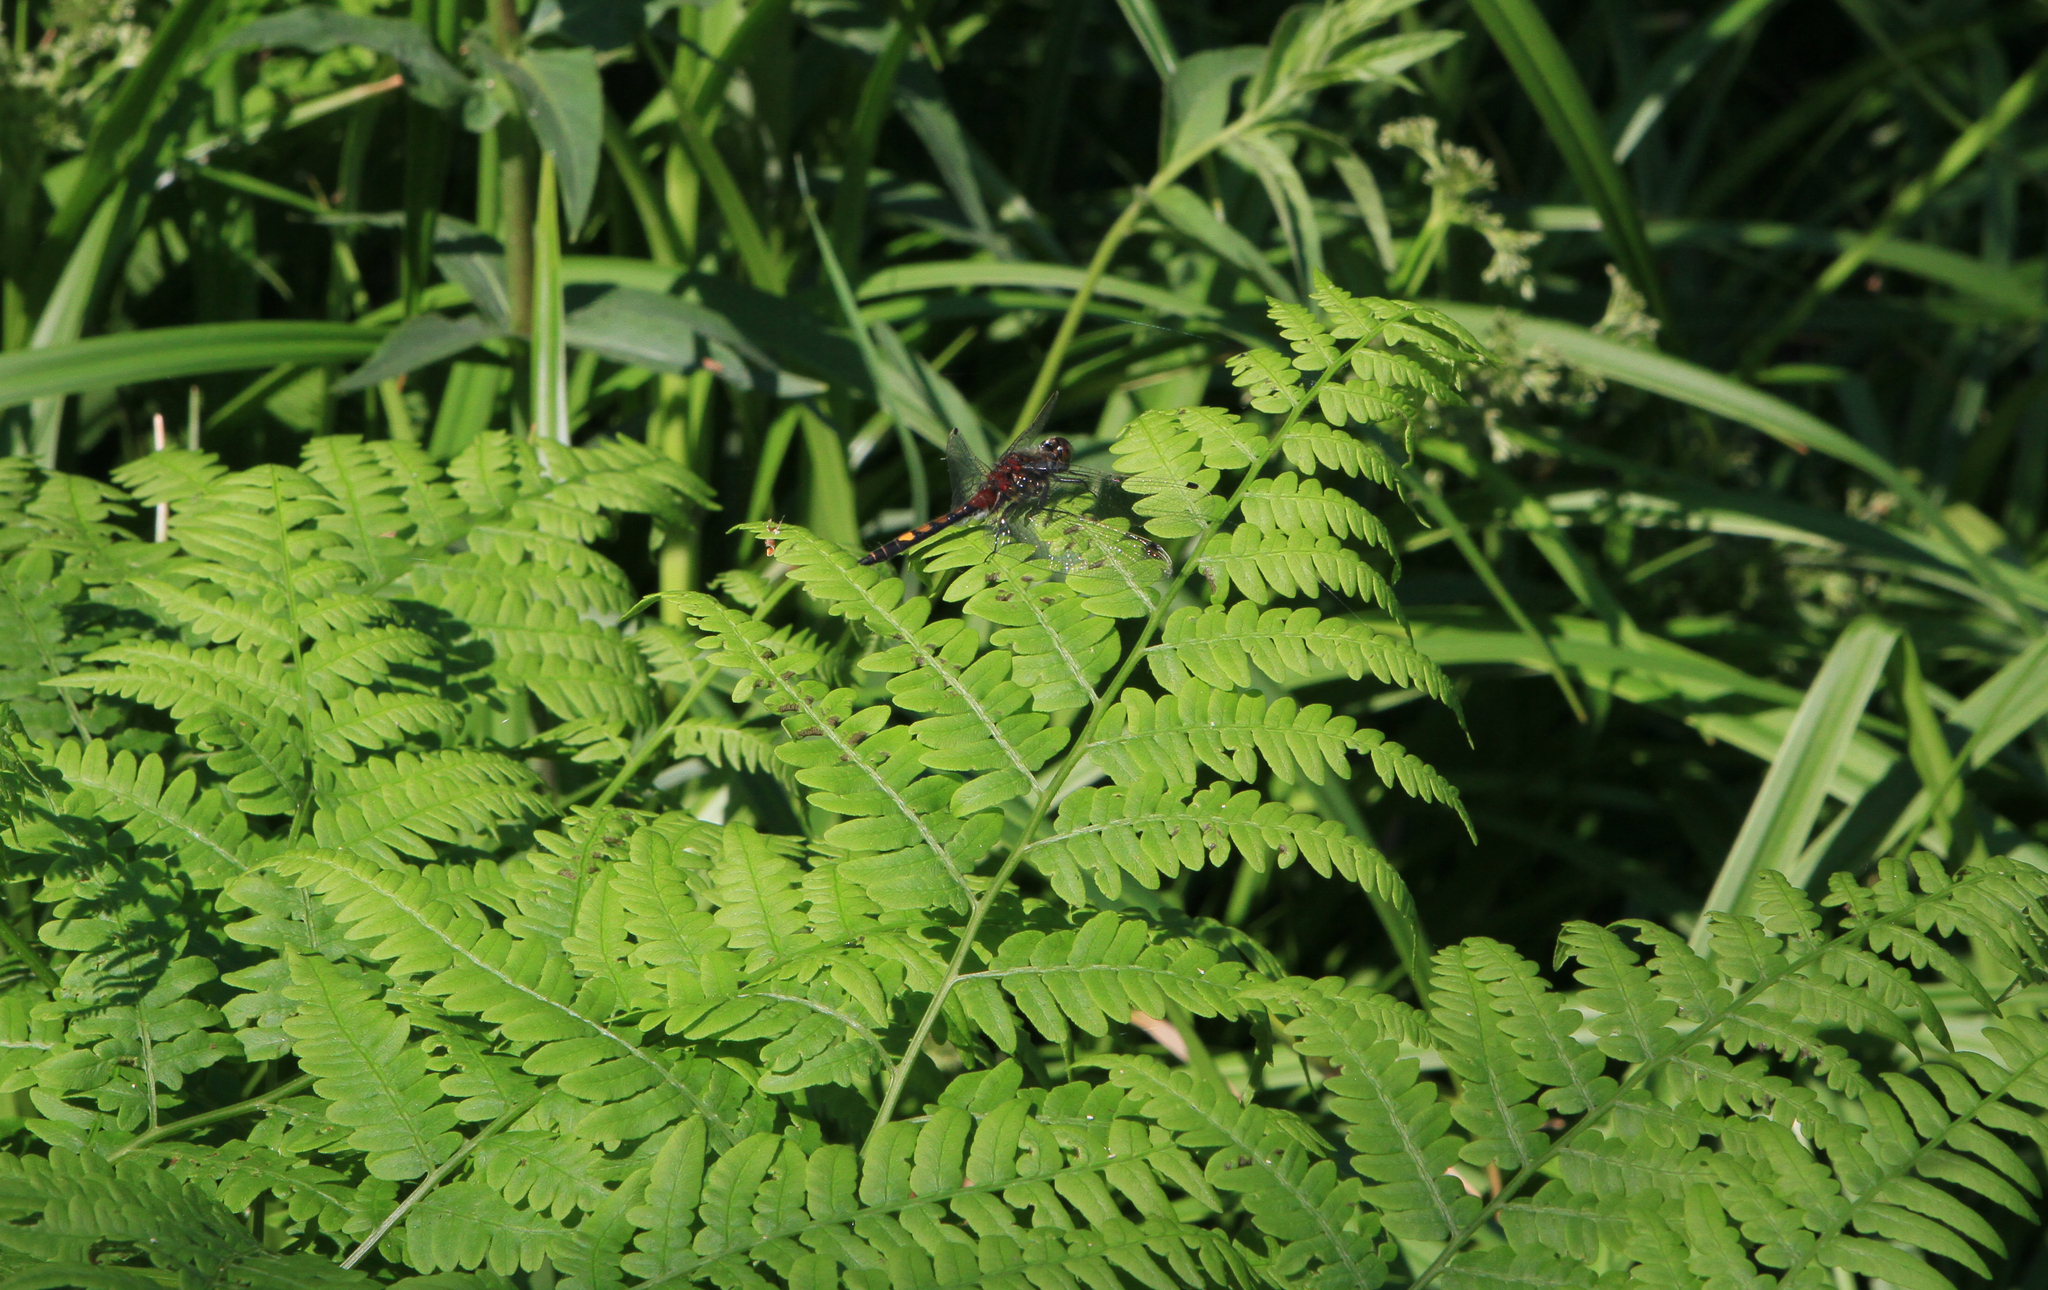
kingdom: Animalia
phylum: Arthropoda
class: Insecta
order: Odonata
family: Libellulidae
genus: Leucorrhinia
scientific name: Leucorrhinia pectoralis
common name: Yellow-spotted whiteface
